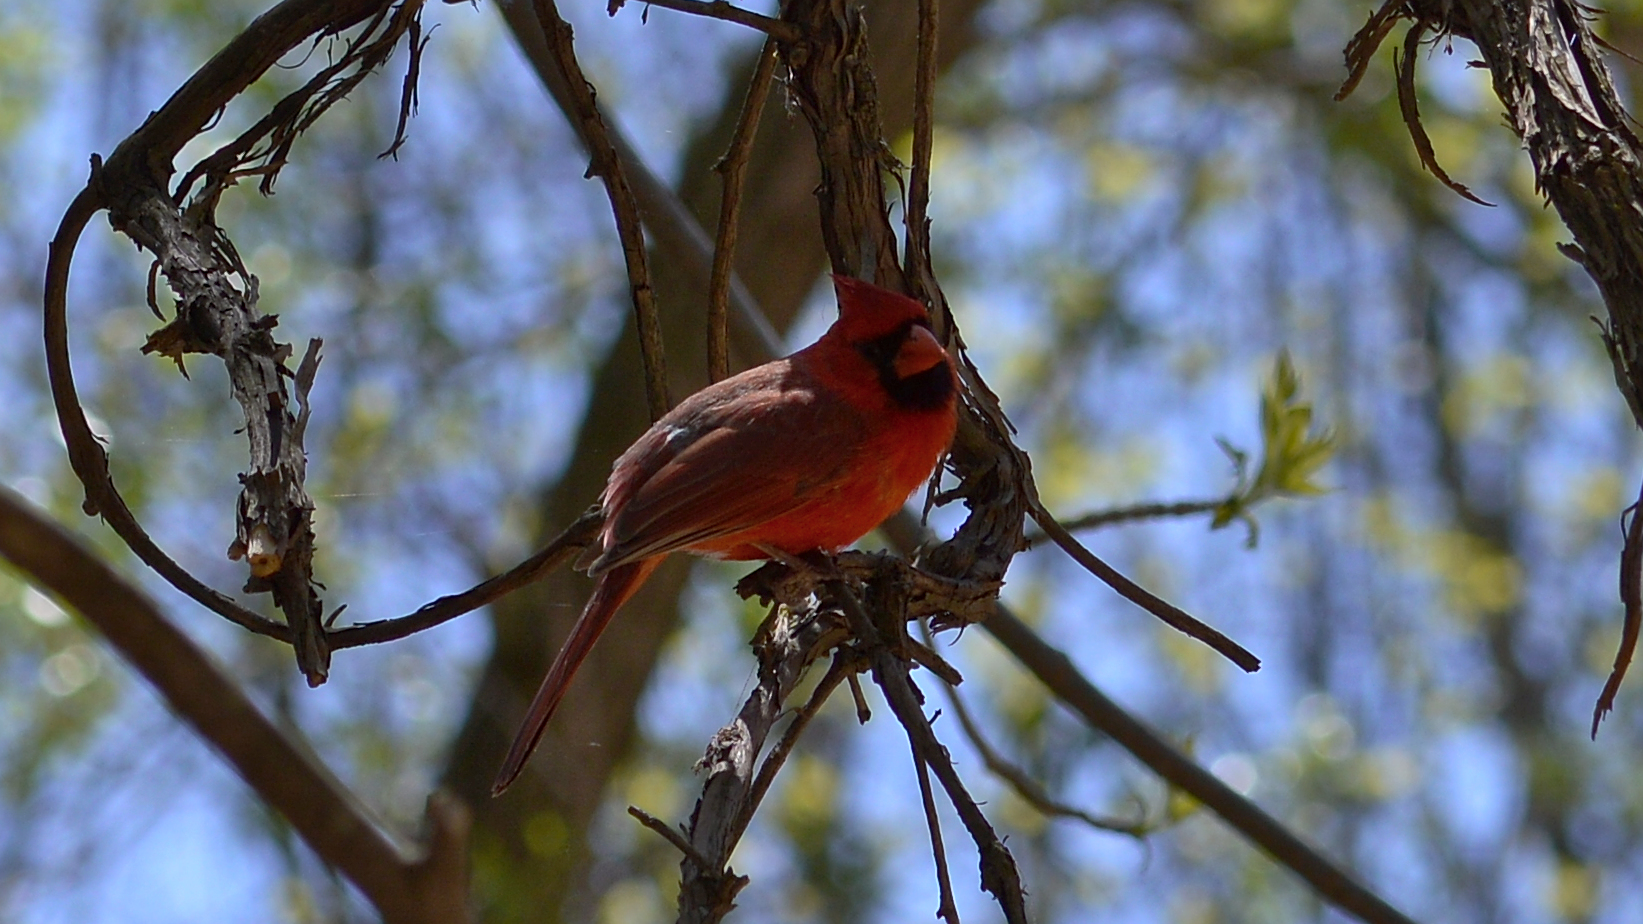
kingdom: Animalia
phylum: Chordata
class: Aves
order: Passeriformes
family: Cardinalidae
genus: Cardinalis
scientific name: Cardinalis cardinalis
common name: Northern cardinal
